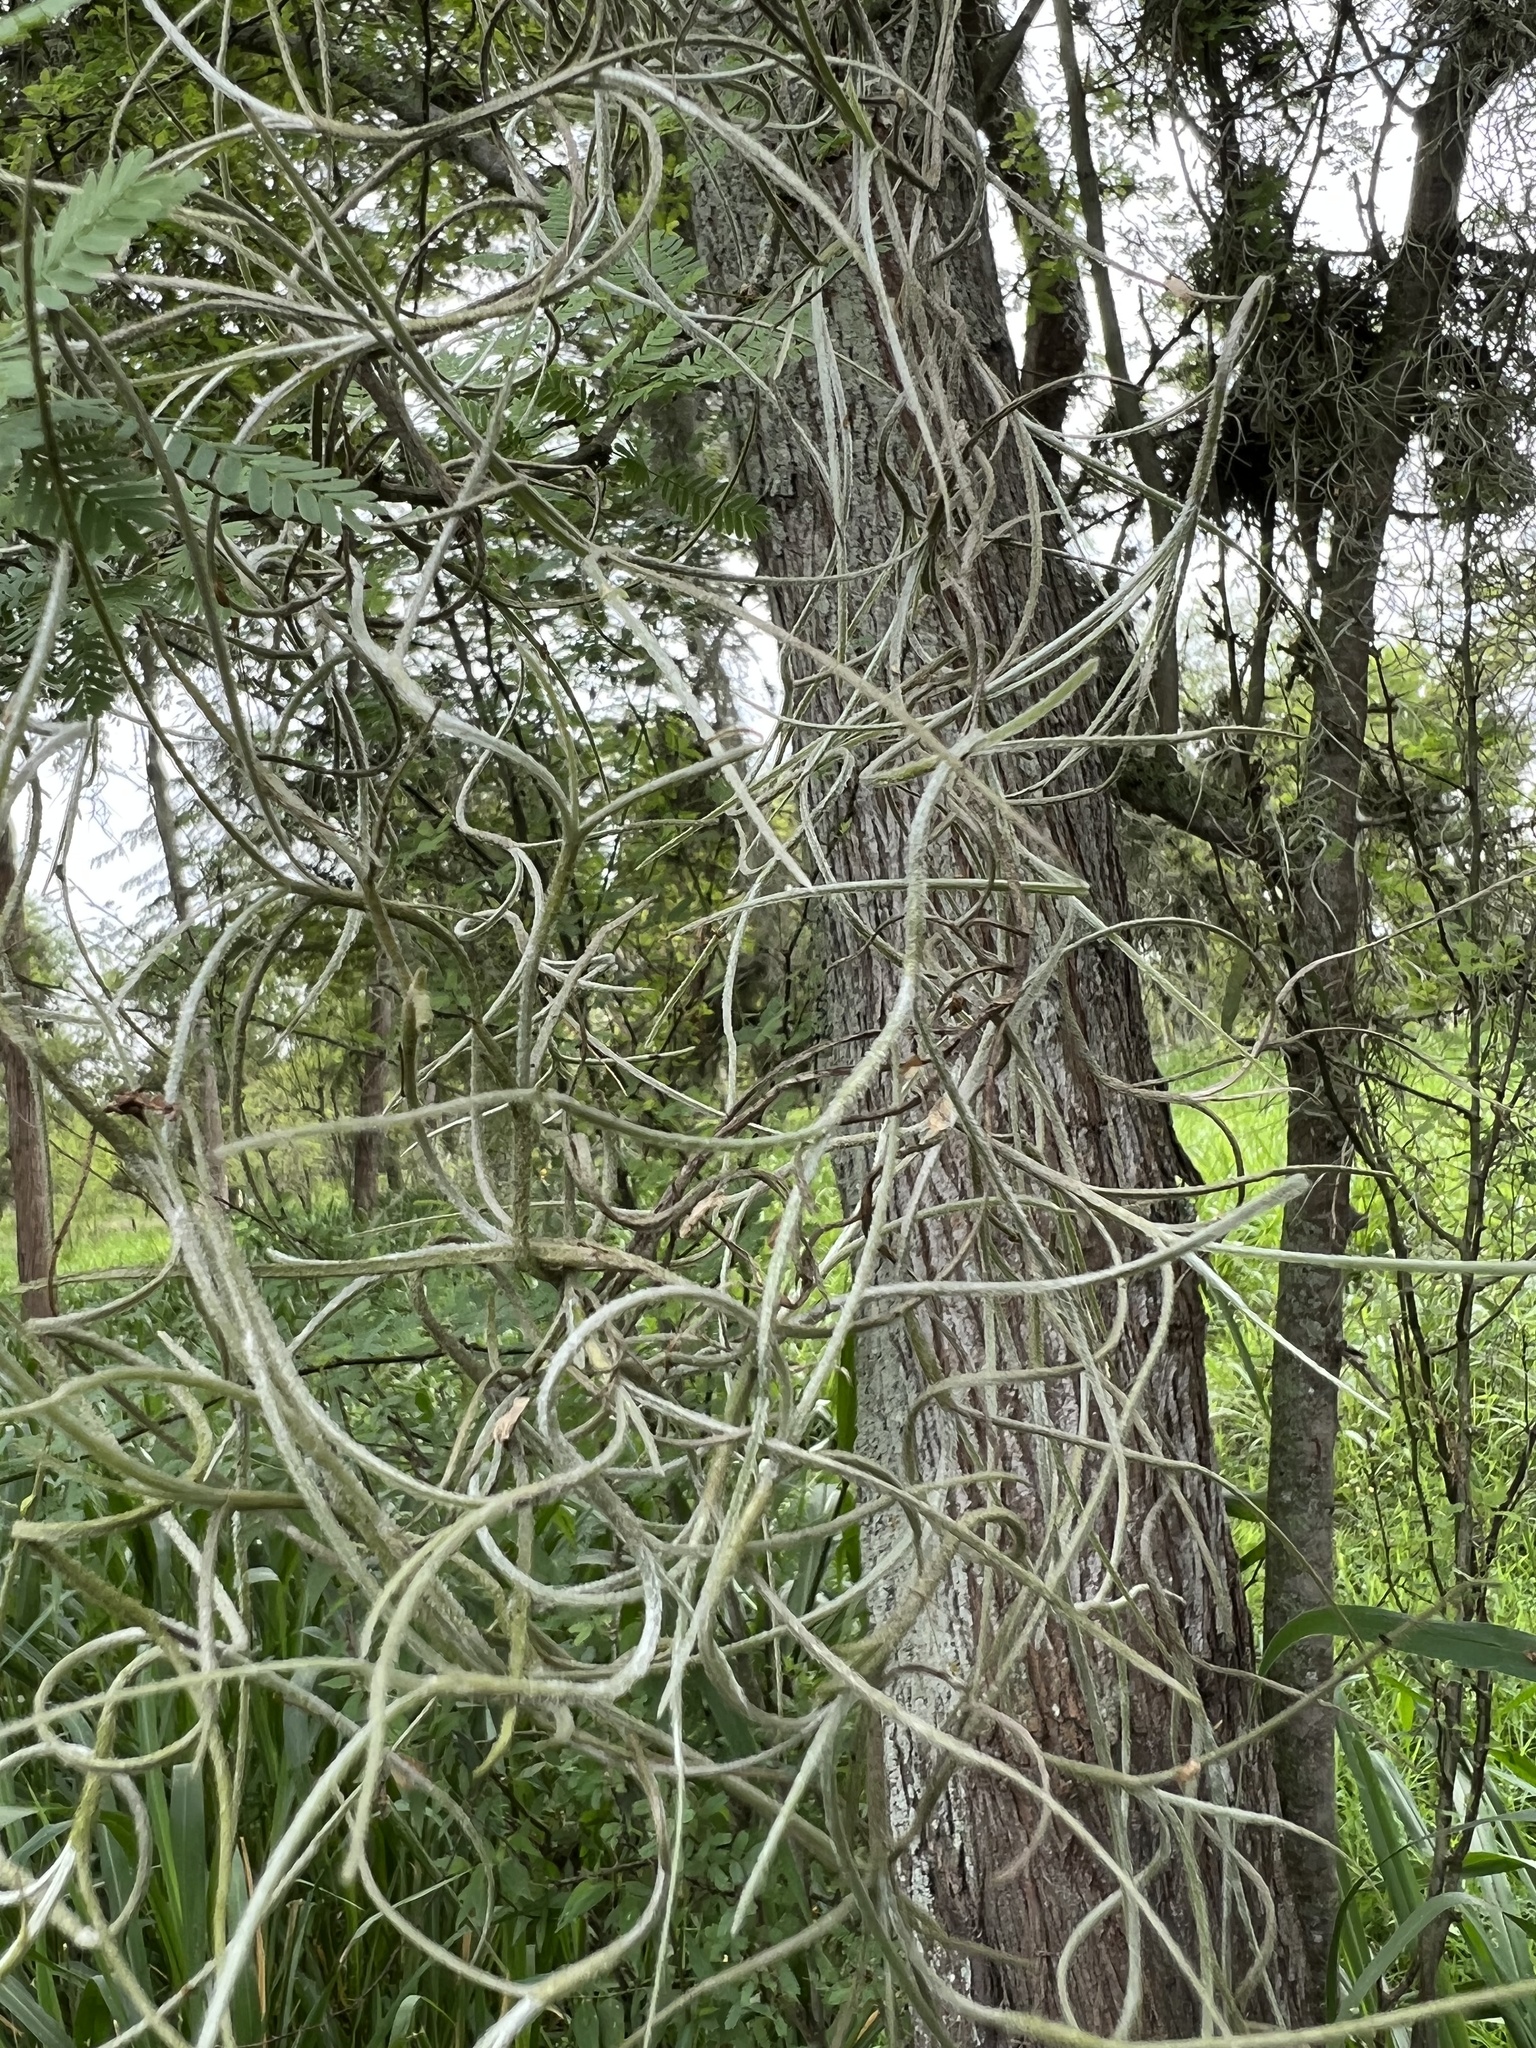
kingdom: Plantae
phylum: Tracheophyta
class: Liliopsida
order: Poales
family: Bromeliaceae
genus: Tillandsia
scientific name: Tillandsia usneoides
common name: Spanish moss
